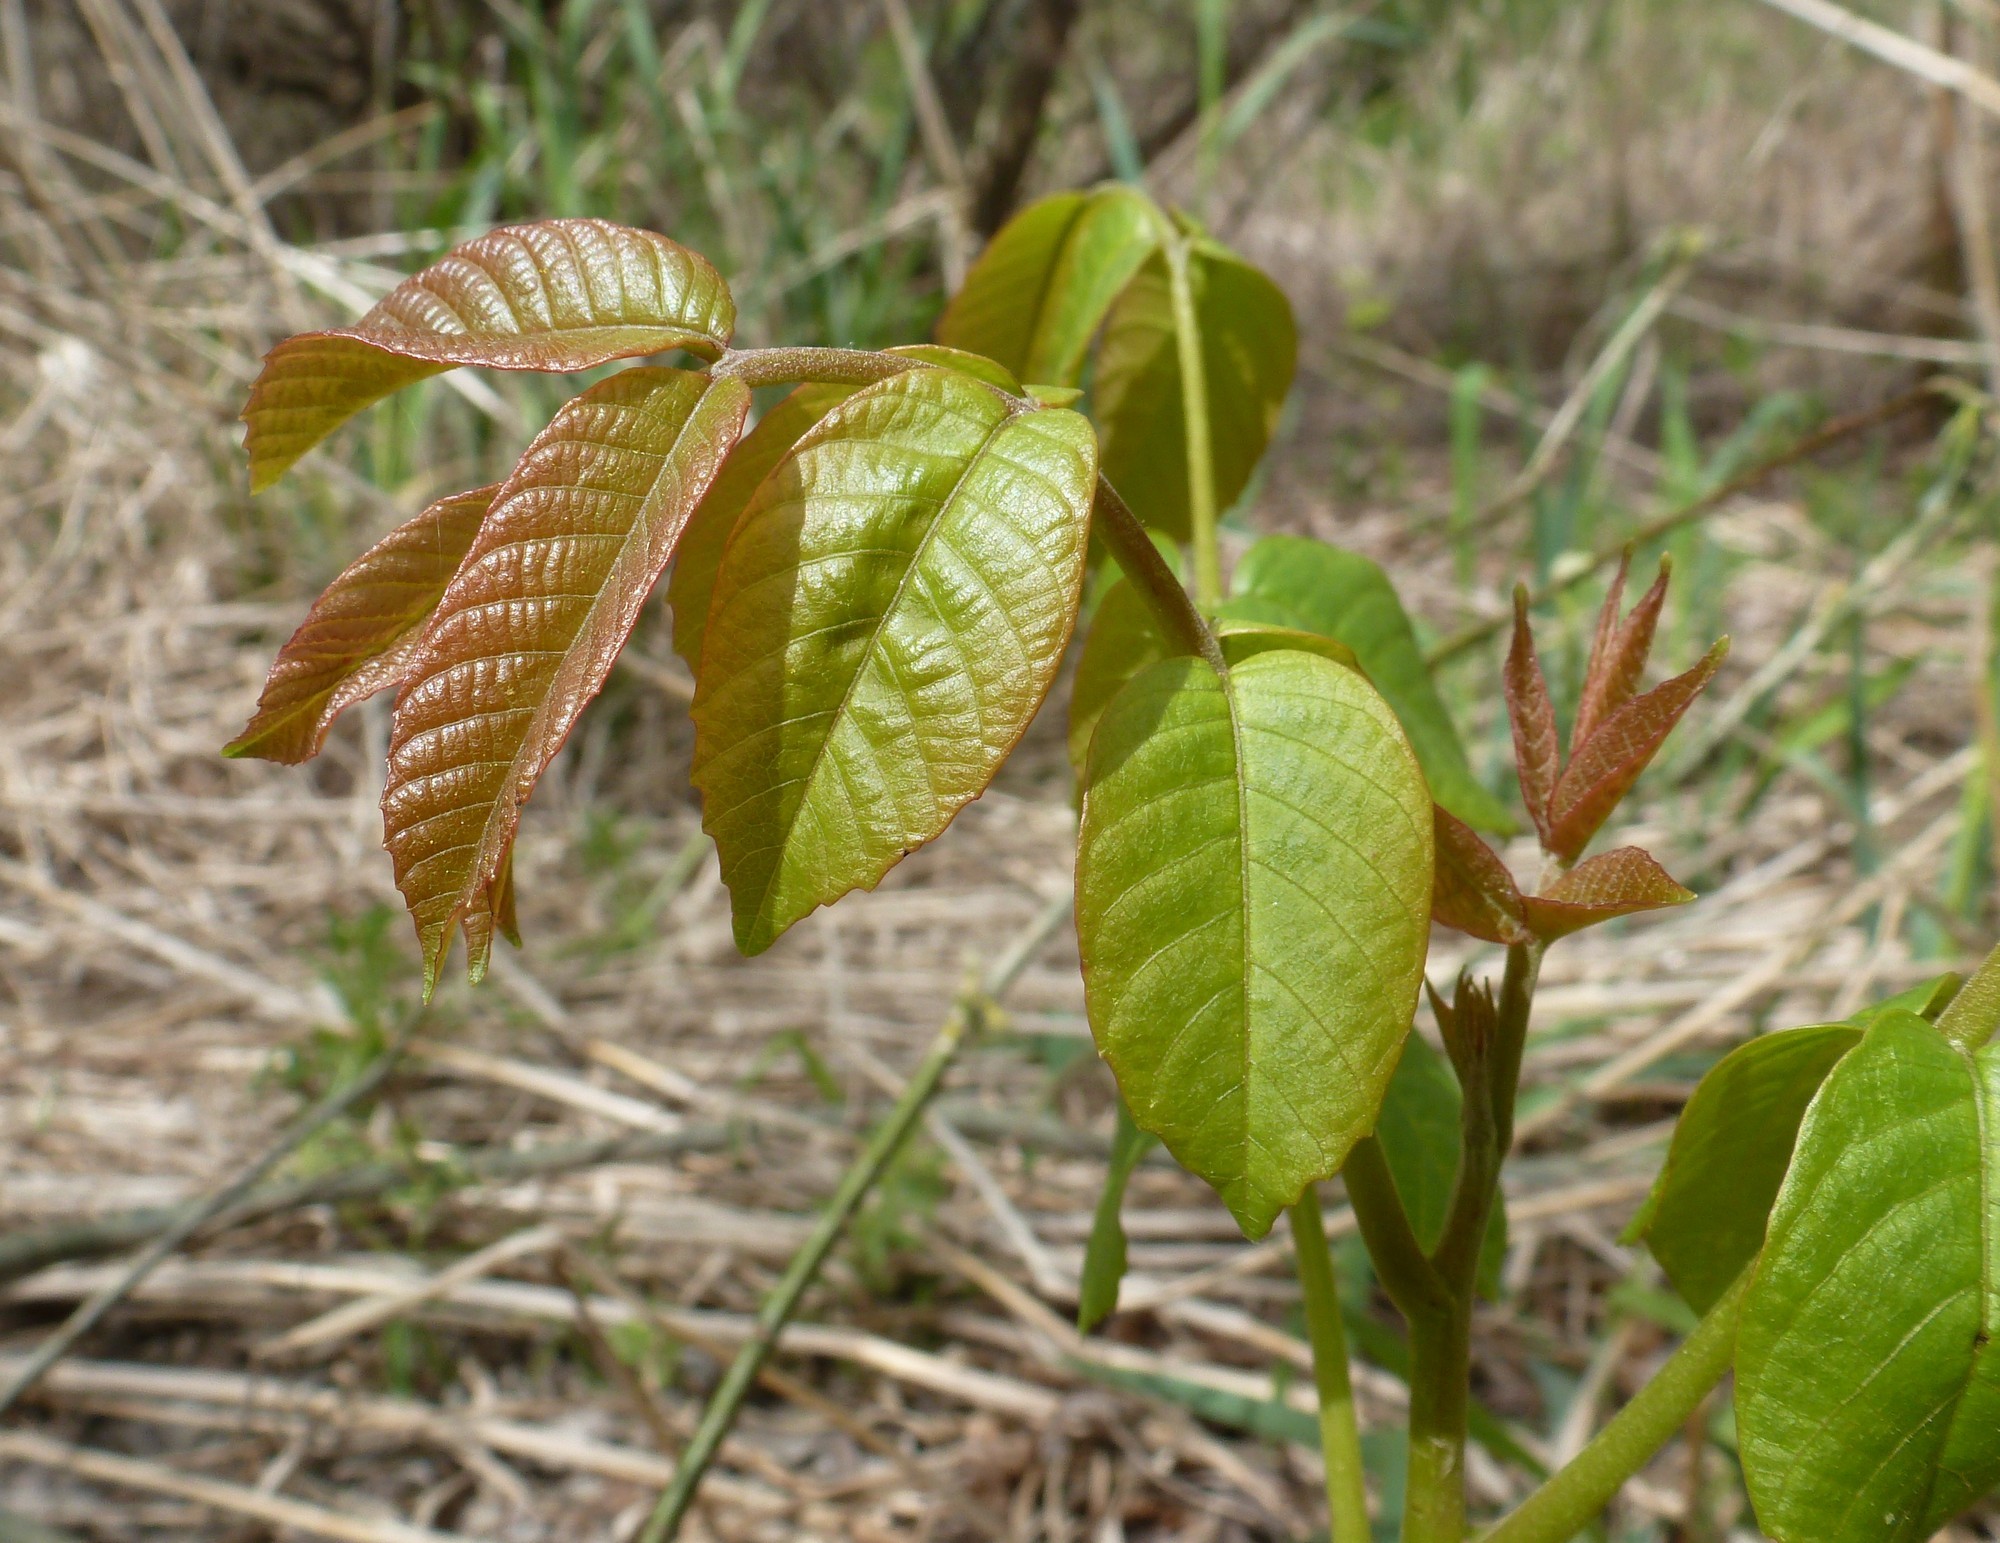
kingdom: Plantae
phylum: Tracheophyta
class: Magnoliopsida
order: Fagales
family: Juglandaceae
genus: Juglans
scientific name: Juglans regia
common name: Walnut
